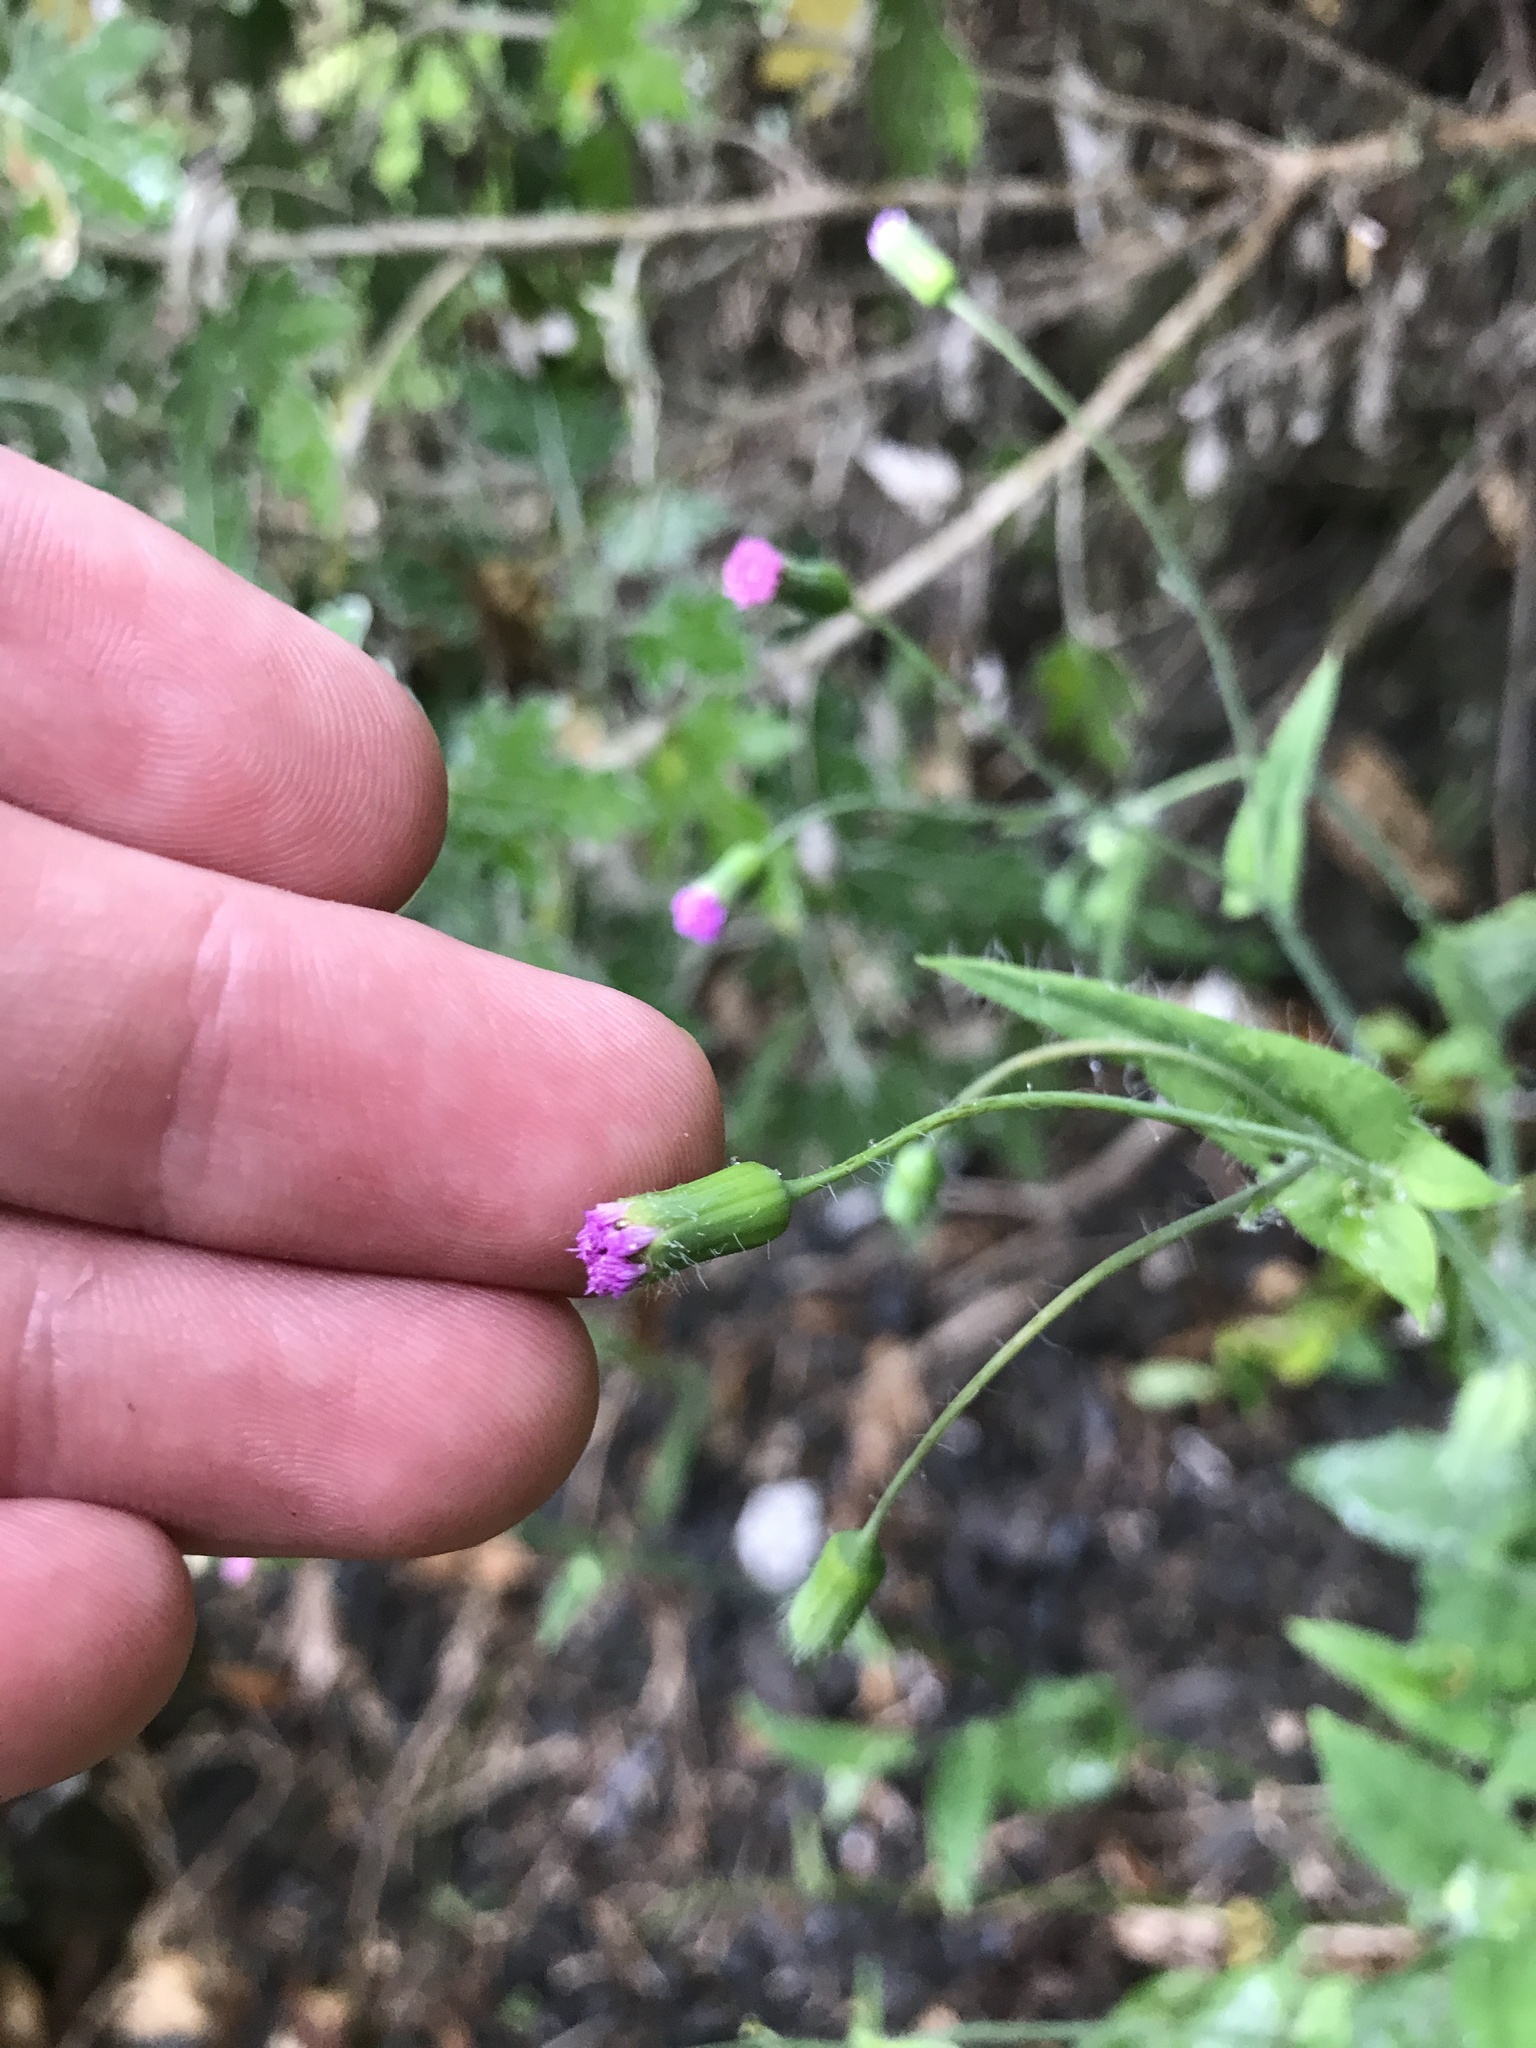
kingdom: Plantae
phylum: Tracheophyta
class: Magnoliopsida
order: Asterales
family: Asteraceae
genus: Emilia
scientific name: Emilia javanica
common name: Tassel-flower
